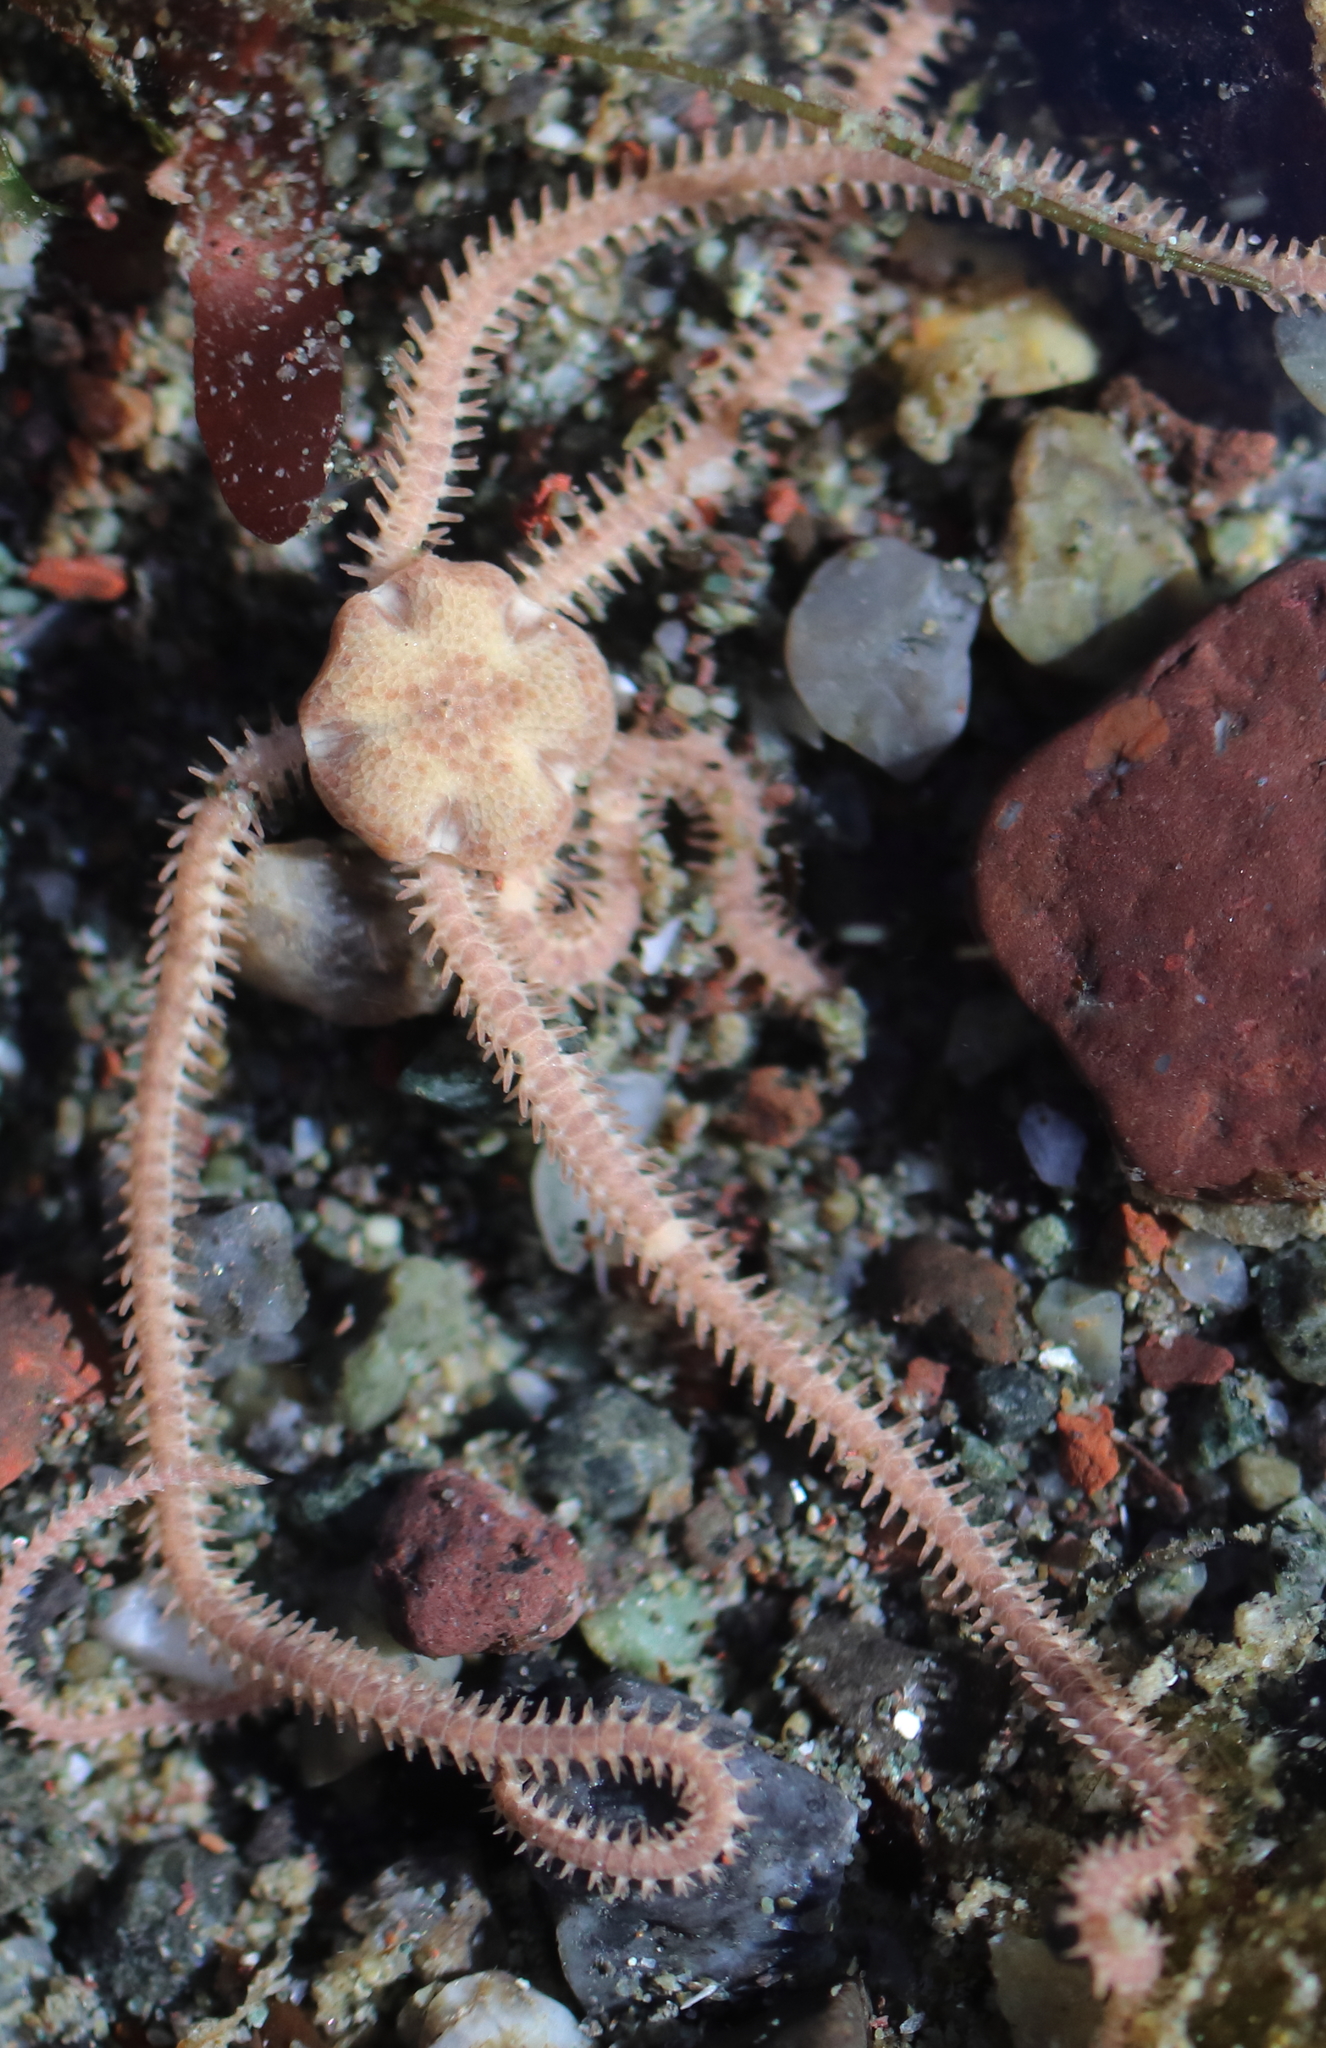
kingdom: Animalia
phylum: Echinodermata
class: Ophiuroidea
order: Amphilepidida
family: Amphiuridae
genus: Amphiodia
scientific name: Amphiodia occidentalis
